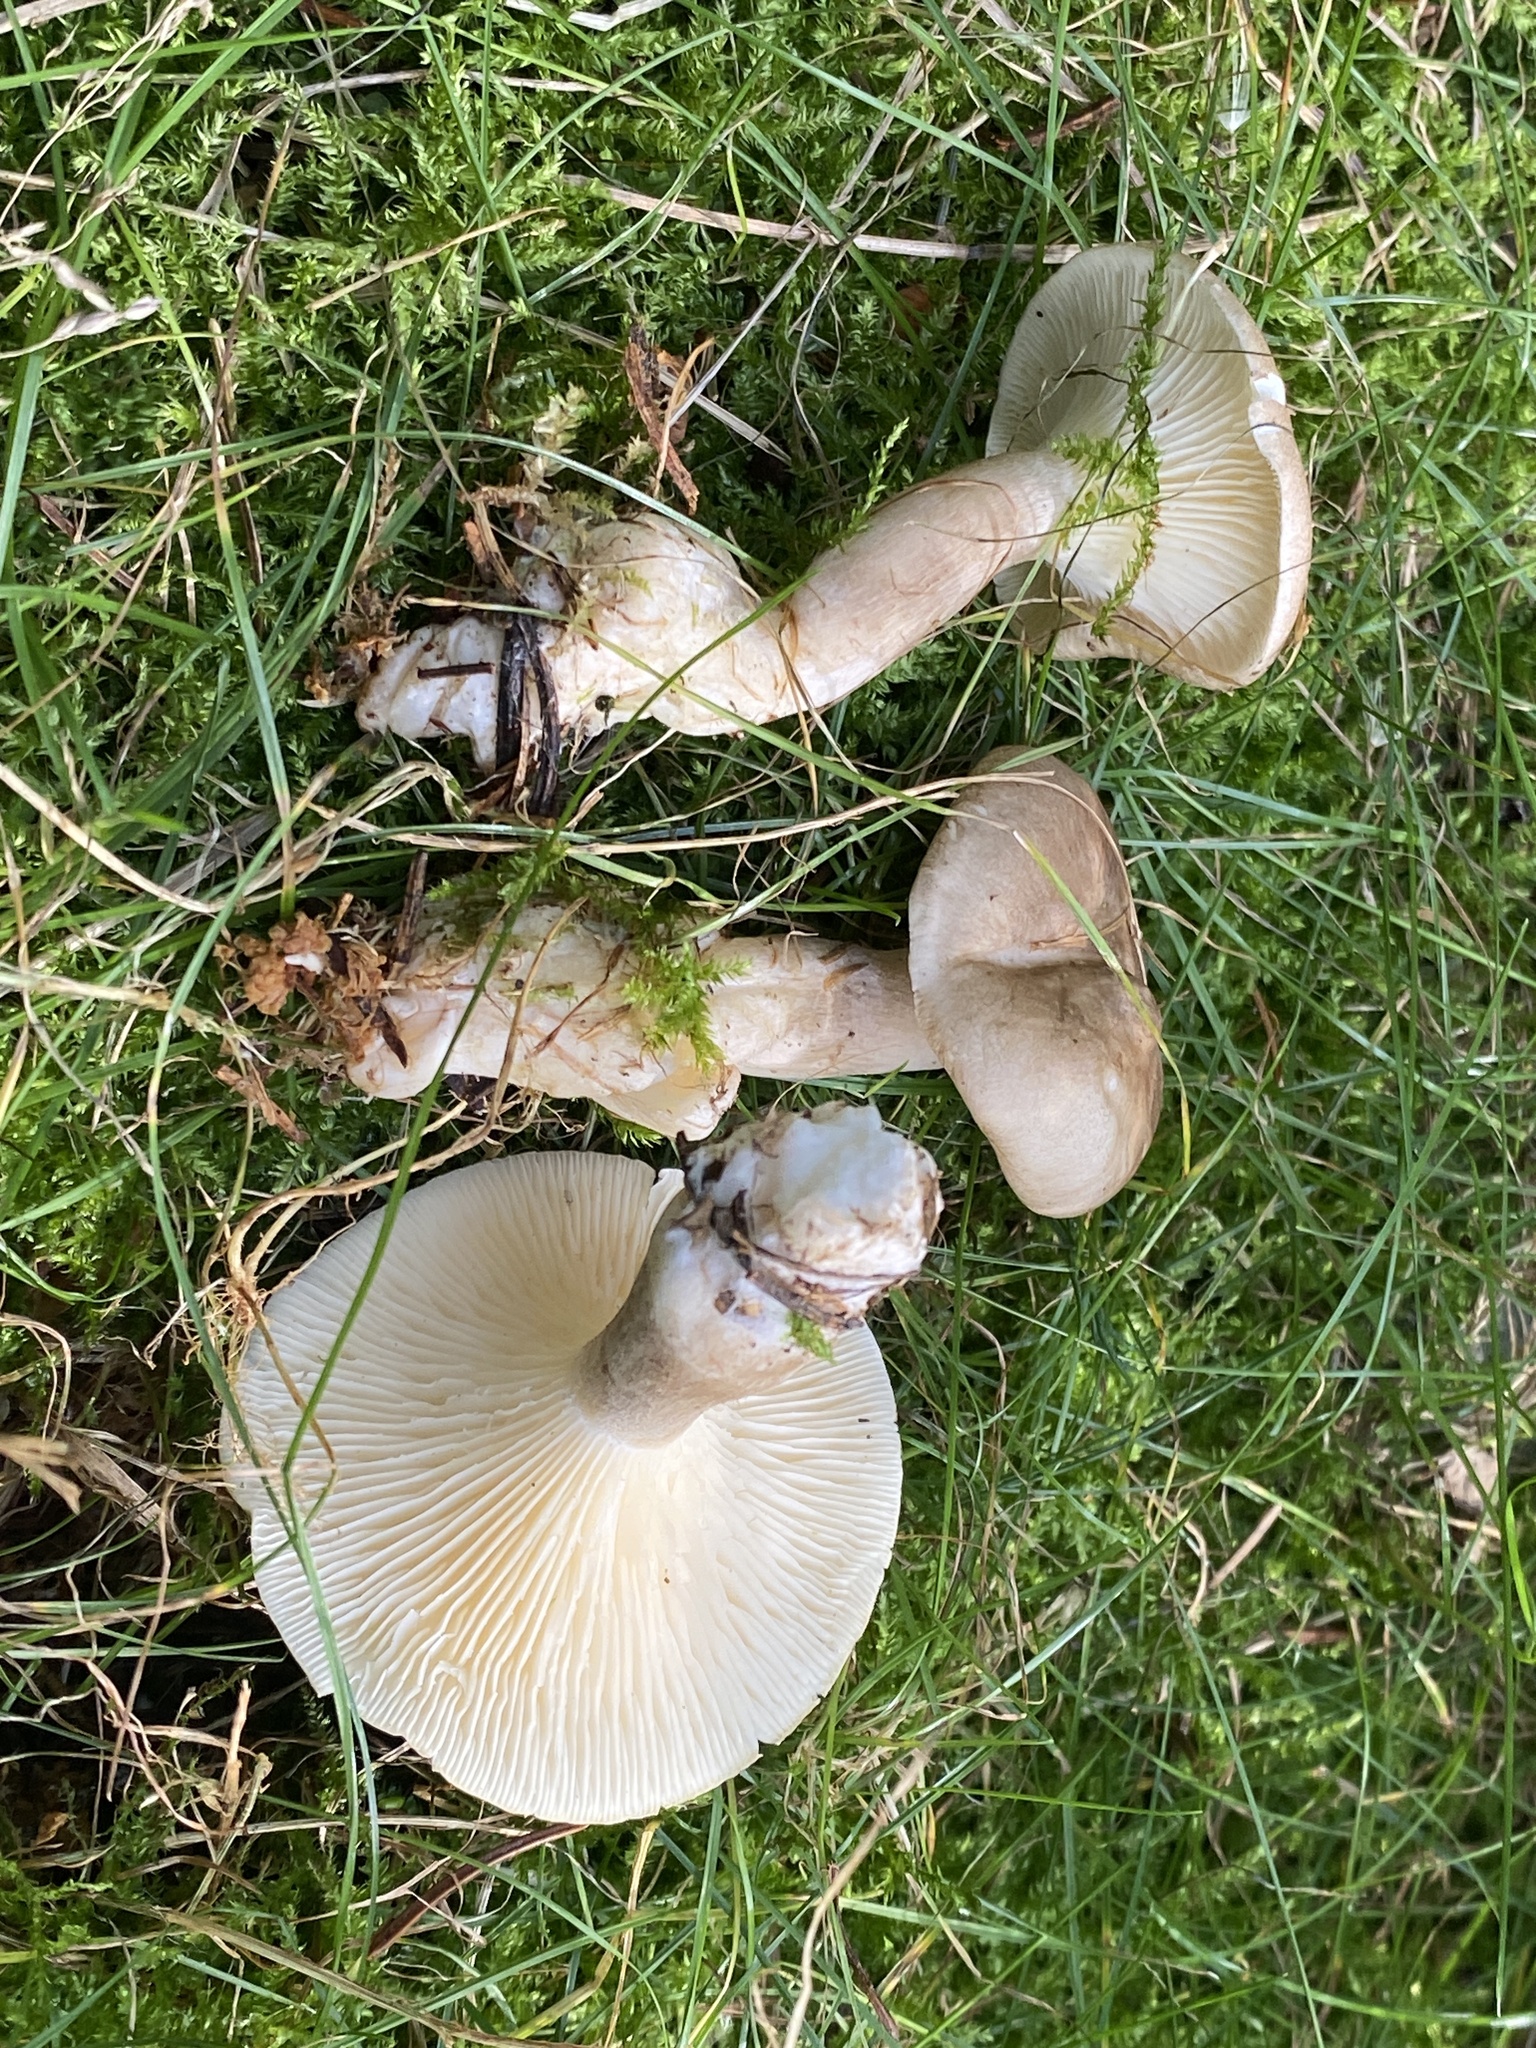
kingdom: Fungi
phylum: Basidiomycota
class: Agaricomycetes
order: Agaricales
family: Hygrophoraceae
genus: Ampulloclitocybe
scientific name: Ampulloclitocybe clavipes
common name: Club foot
